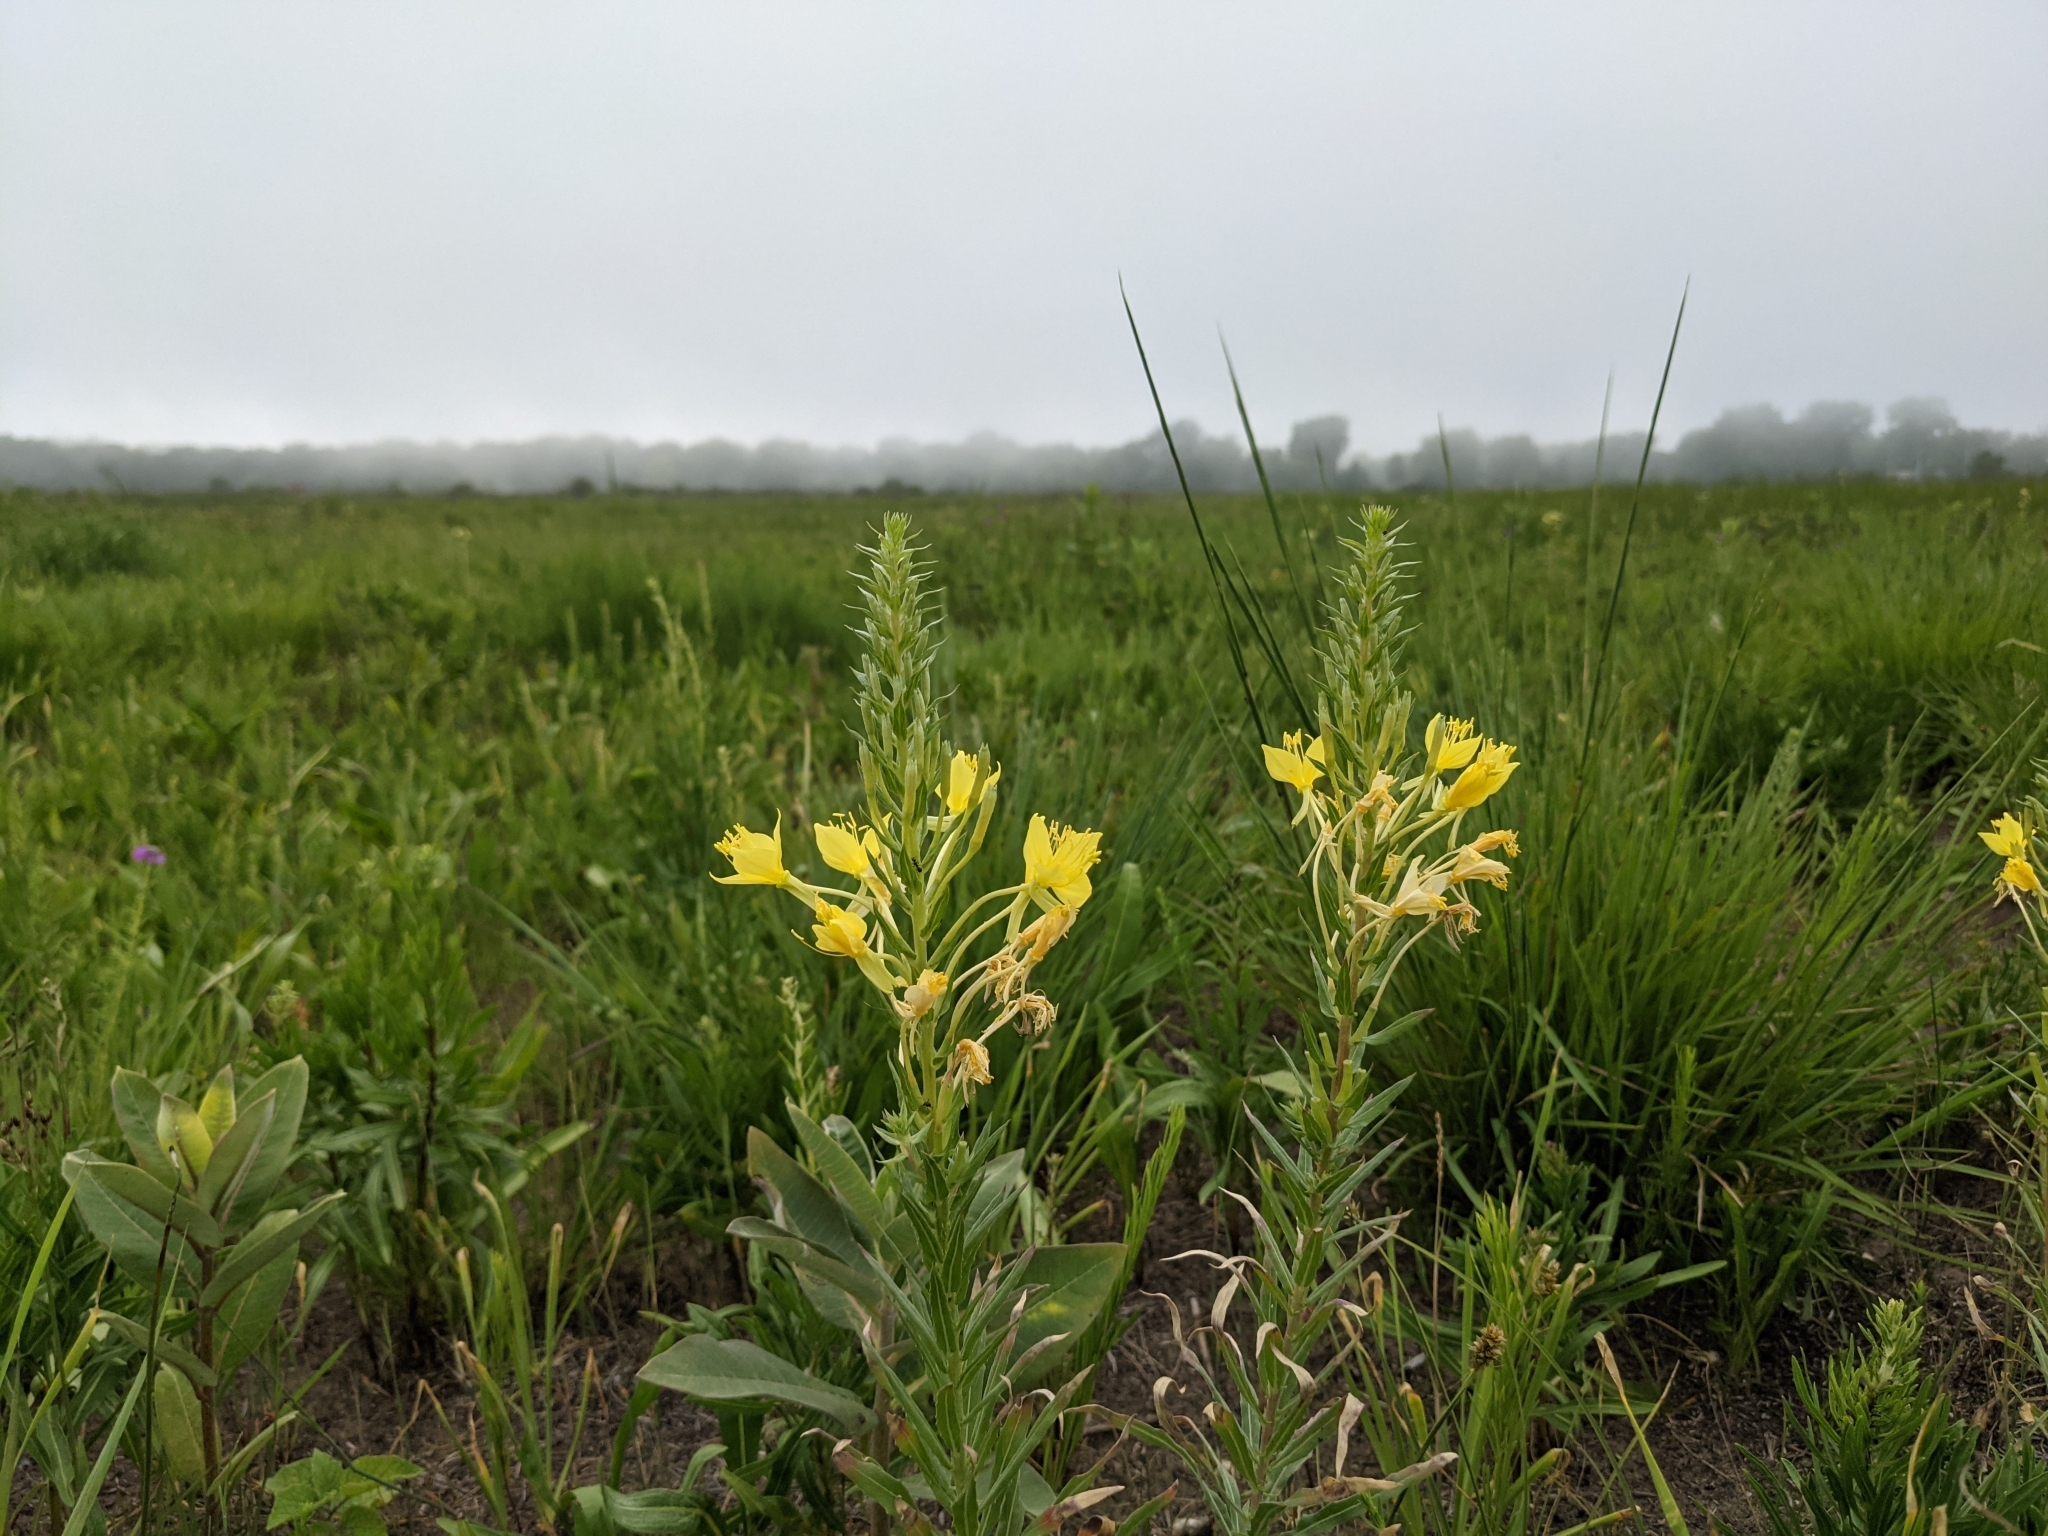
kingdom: Plantae
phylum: Tracheophyta
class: Magnoliopsida
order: Myrtales
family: Onagraceae
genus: Oenothera
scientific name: Oenothera clelandii
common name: Cleland's evening-primrose
